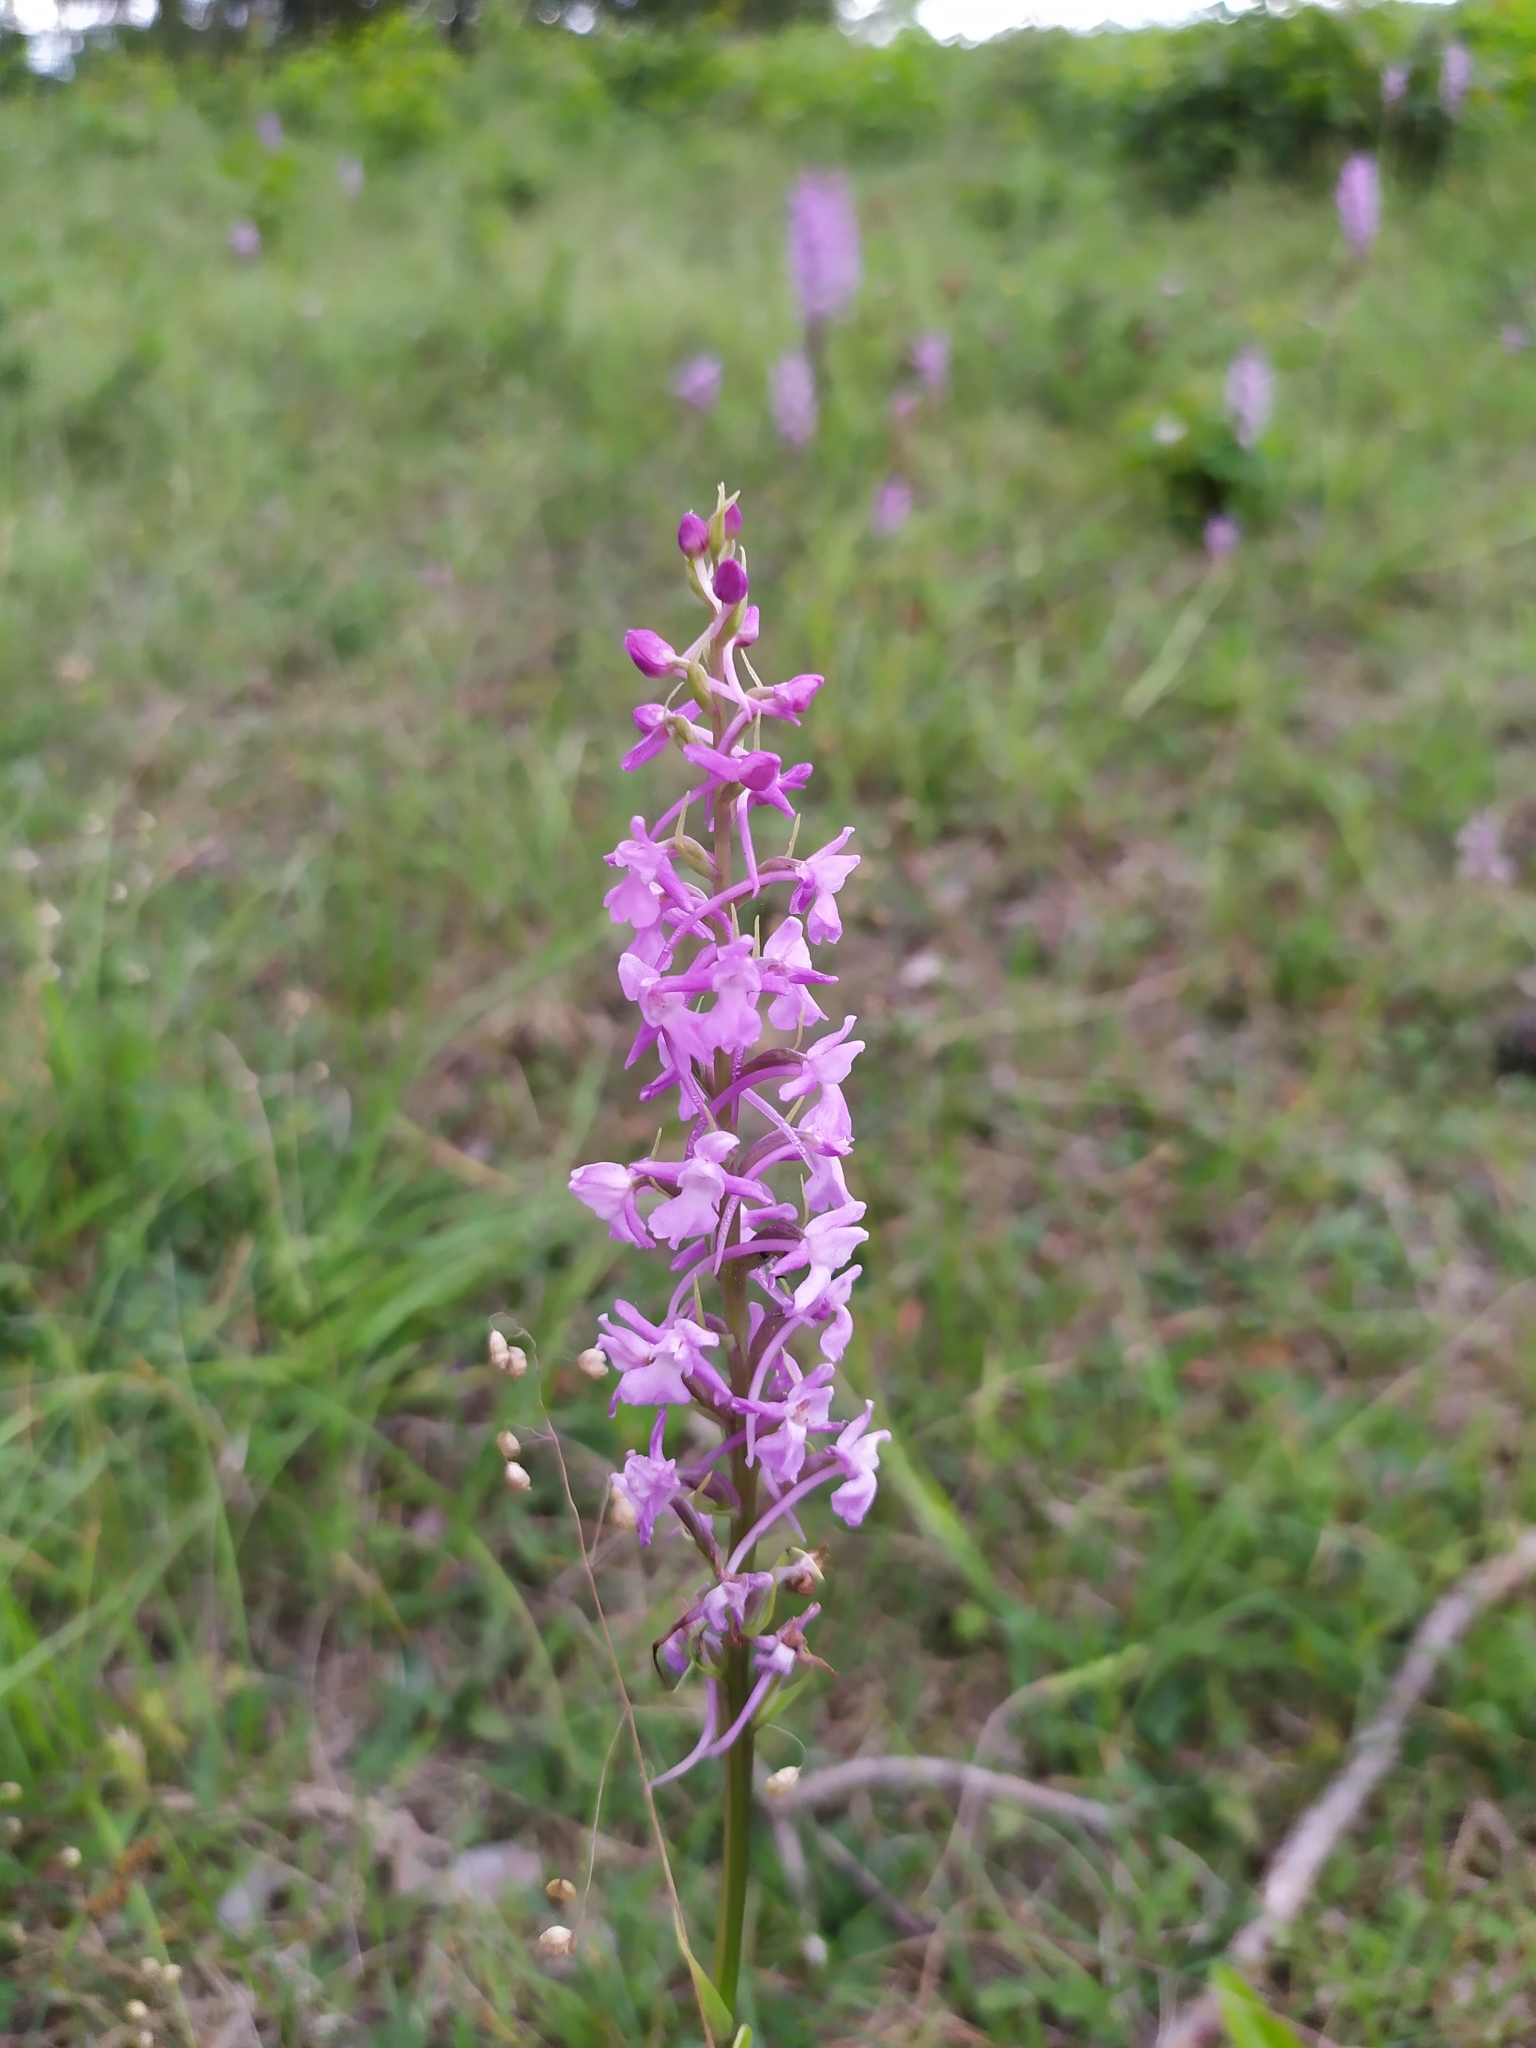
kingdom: Plantae
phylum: Tracheophyta
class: Liliopsida
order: Asparagales
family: Orchidaceae
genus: Gymnadenia
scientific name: Gymnadenia conopsea
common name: Fragrant orchid
